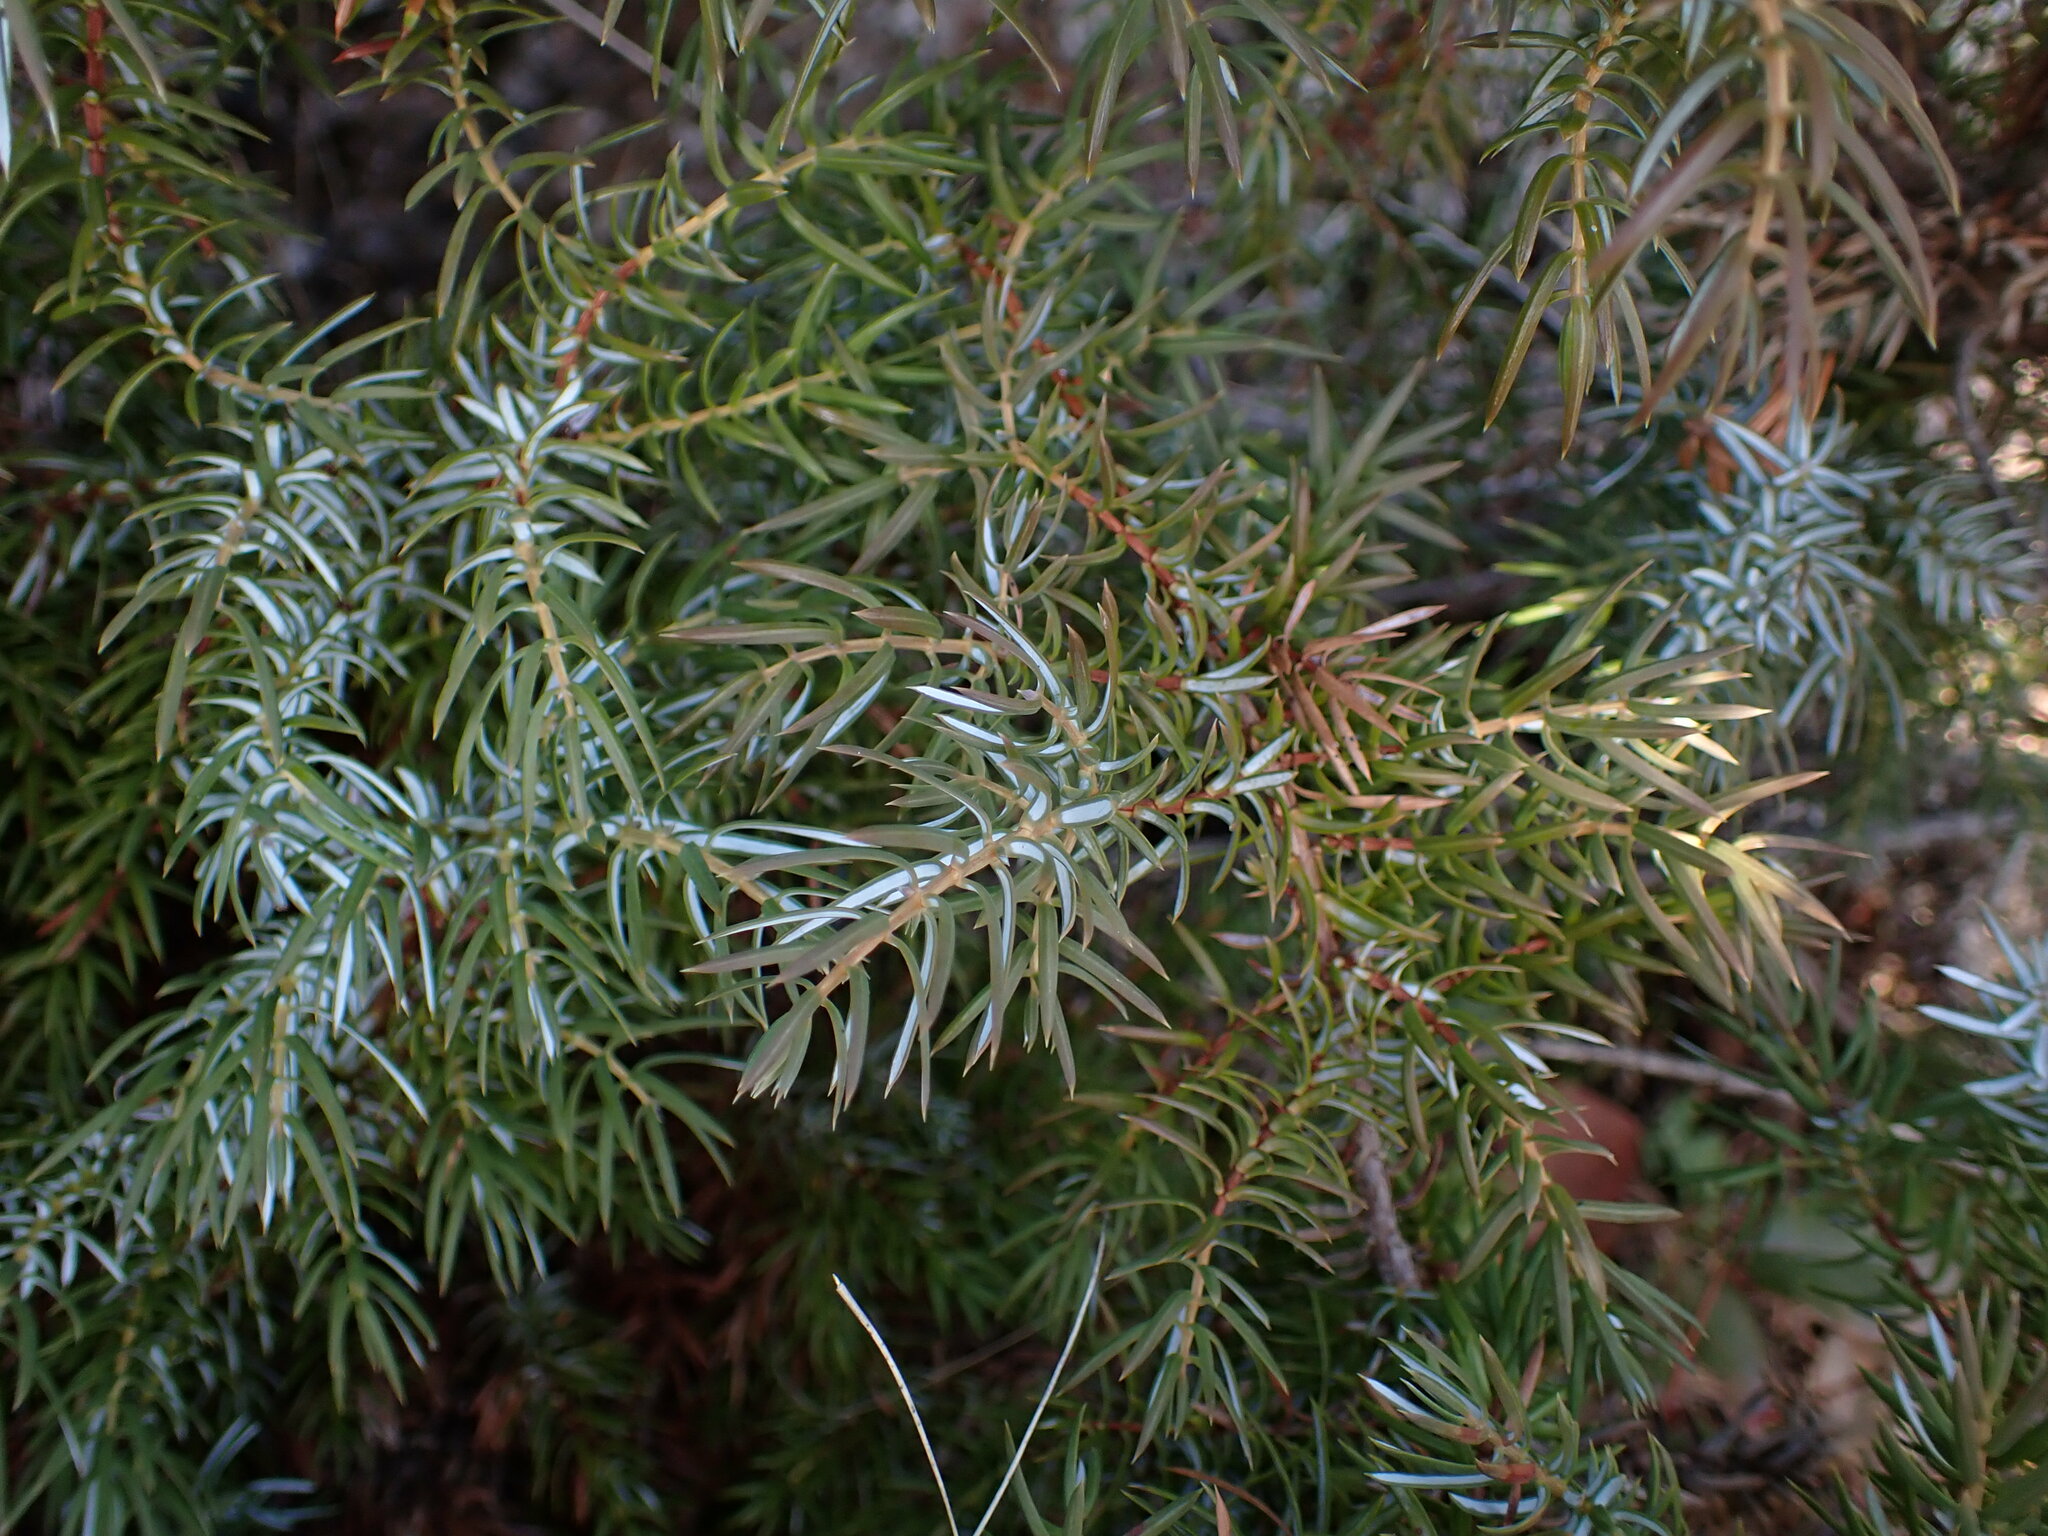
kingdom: Plantae
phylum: Tracheophyta
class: Pinopsida
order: Pinales
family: Cupressaceae
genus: Juniperus
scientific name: Juniperus communis
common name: Common juniper
